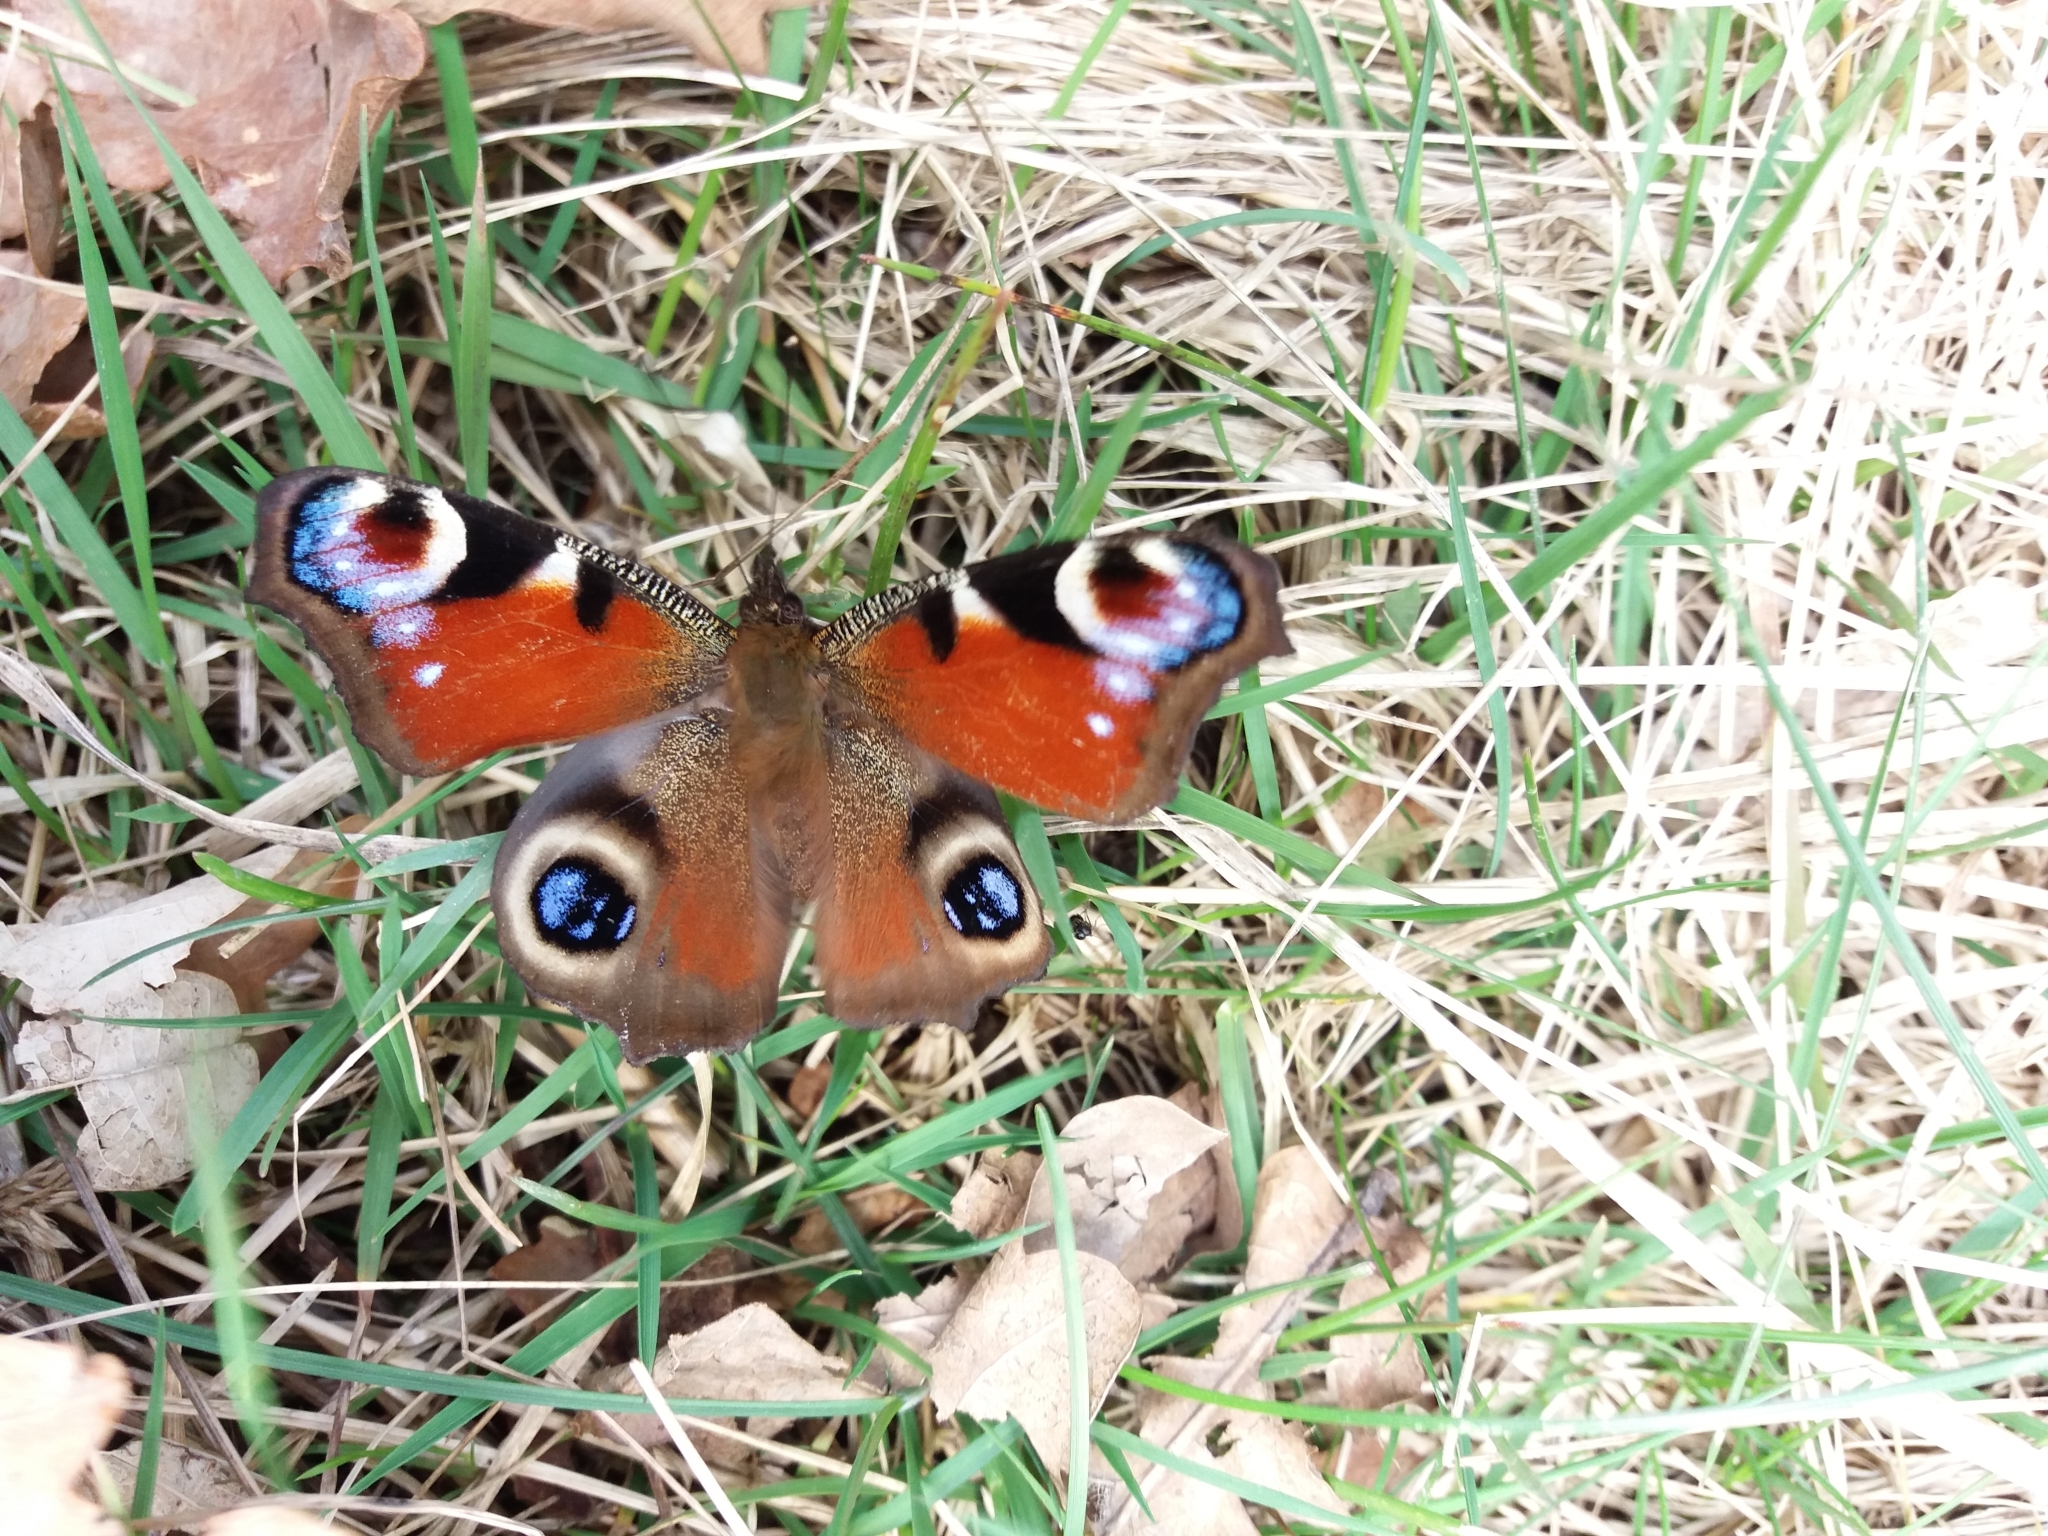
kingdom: Animalia
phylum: Arthropoda
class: Insecta
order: Lepidoptera
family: Nymphalidae
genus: Aglais
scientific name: Aglais io
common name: Peacock
